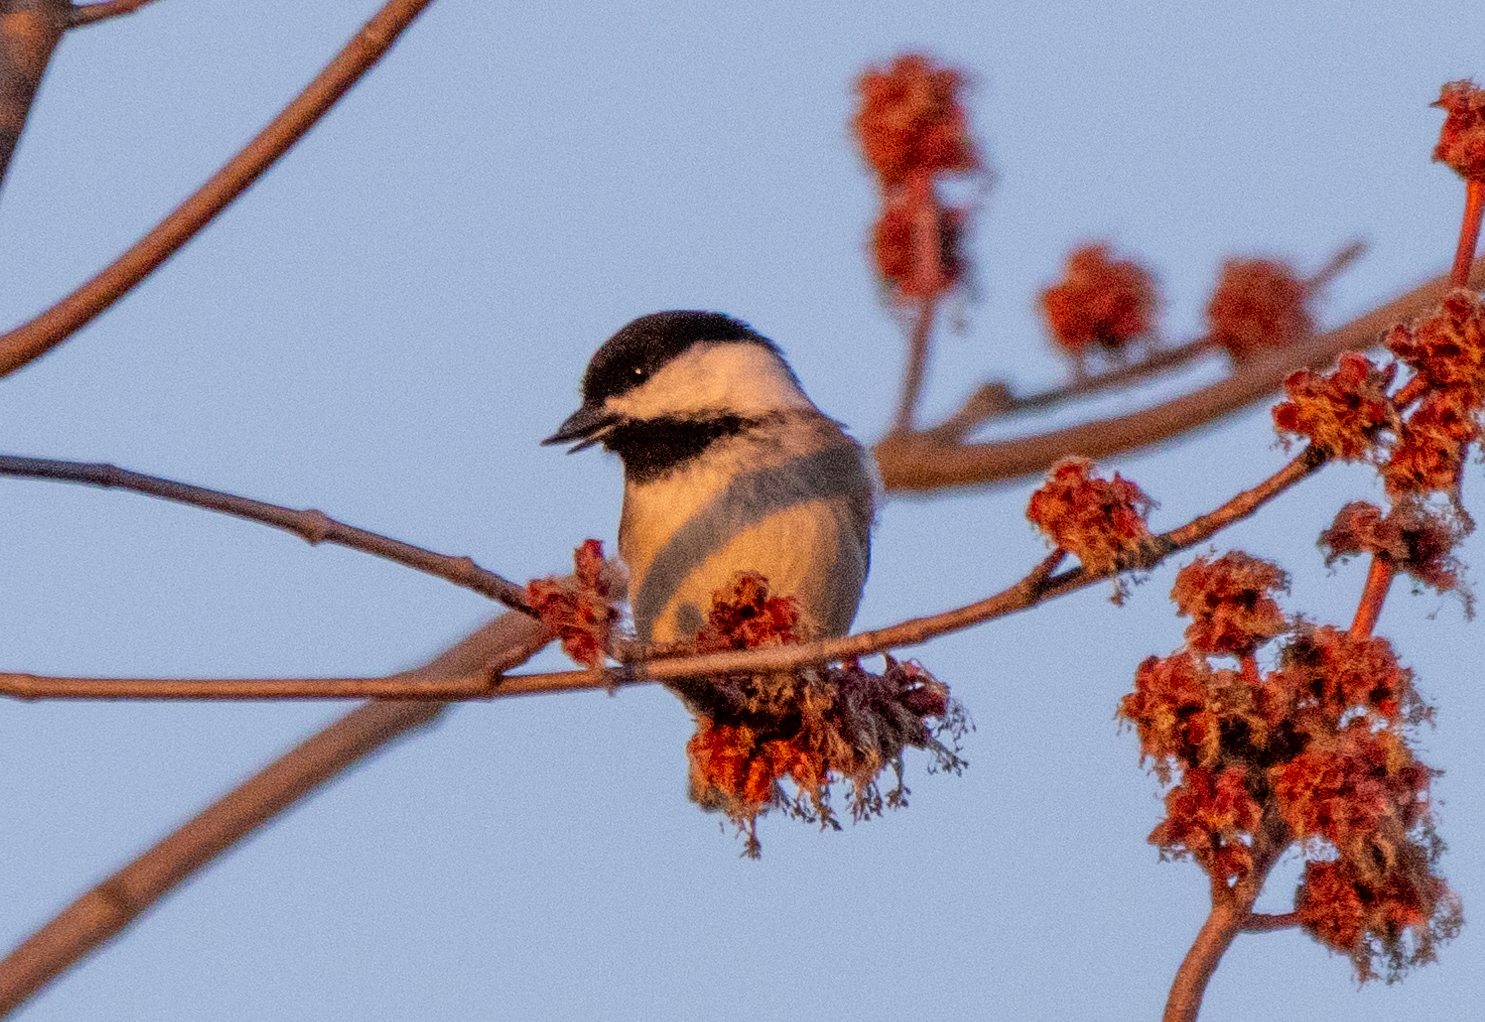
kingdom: Animalia
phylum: Chordata
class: Aves
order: Passeriformes
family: Paridae
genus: Poecile
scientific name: Poecile atricapillus
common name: Black-capped chickadee
